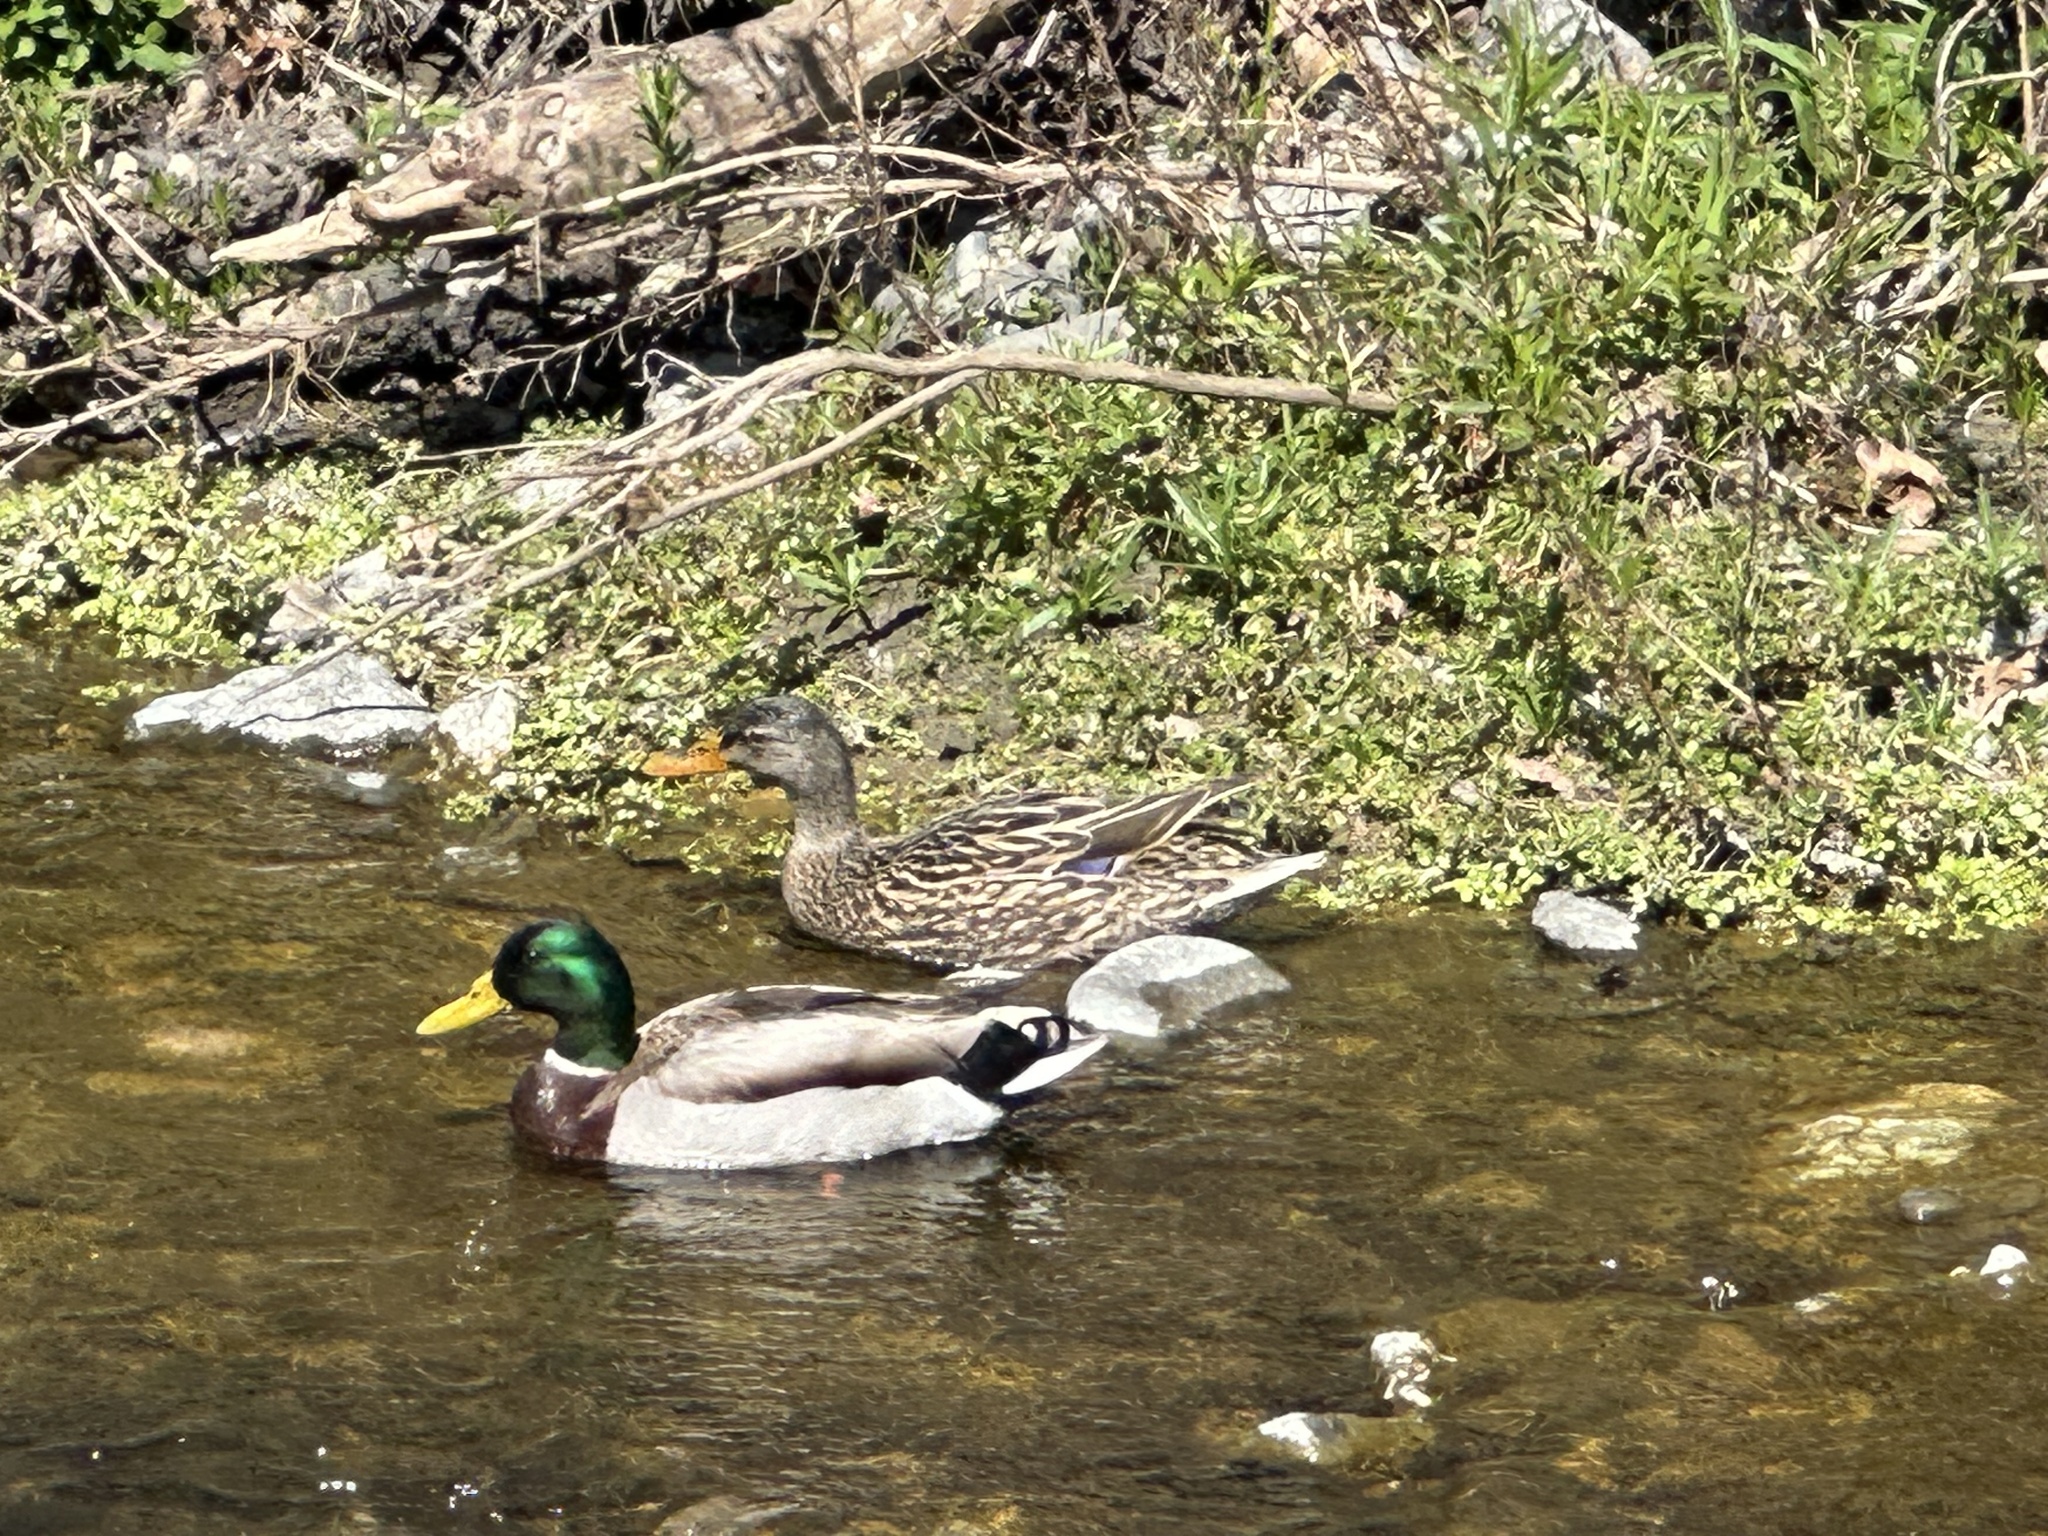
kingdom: Animalia
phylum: Chordata
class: Aves
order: Anseriformes
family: Anatidae
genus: Anas
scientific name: Anas platyrhynchos
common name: Mallard
